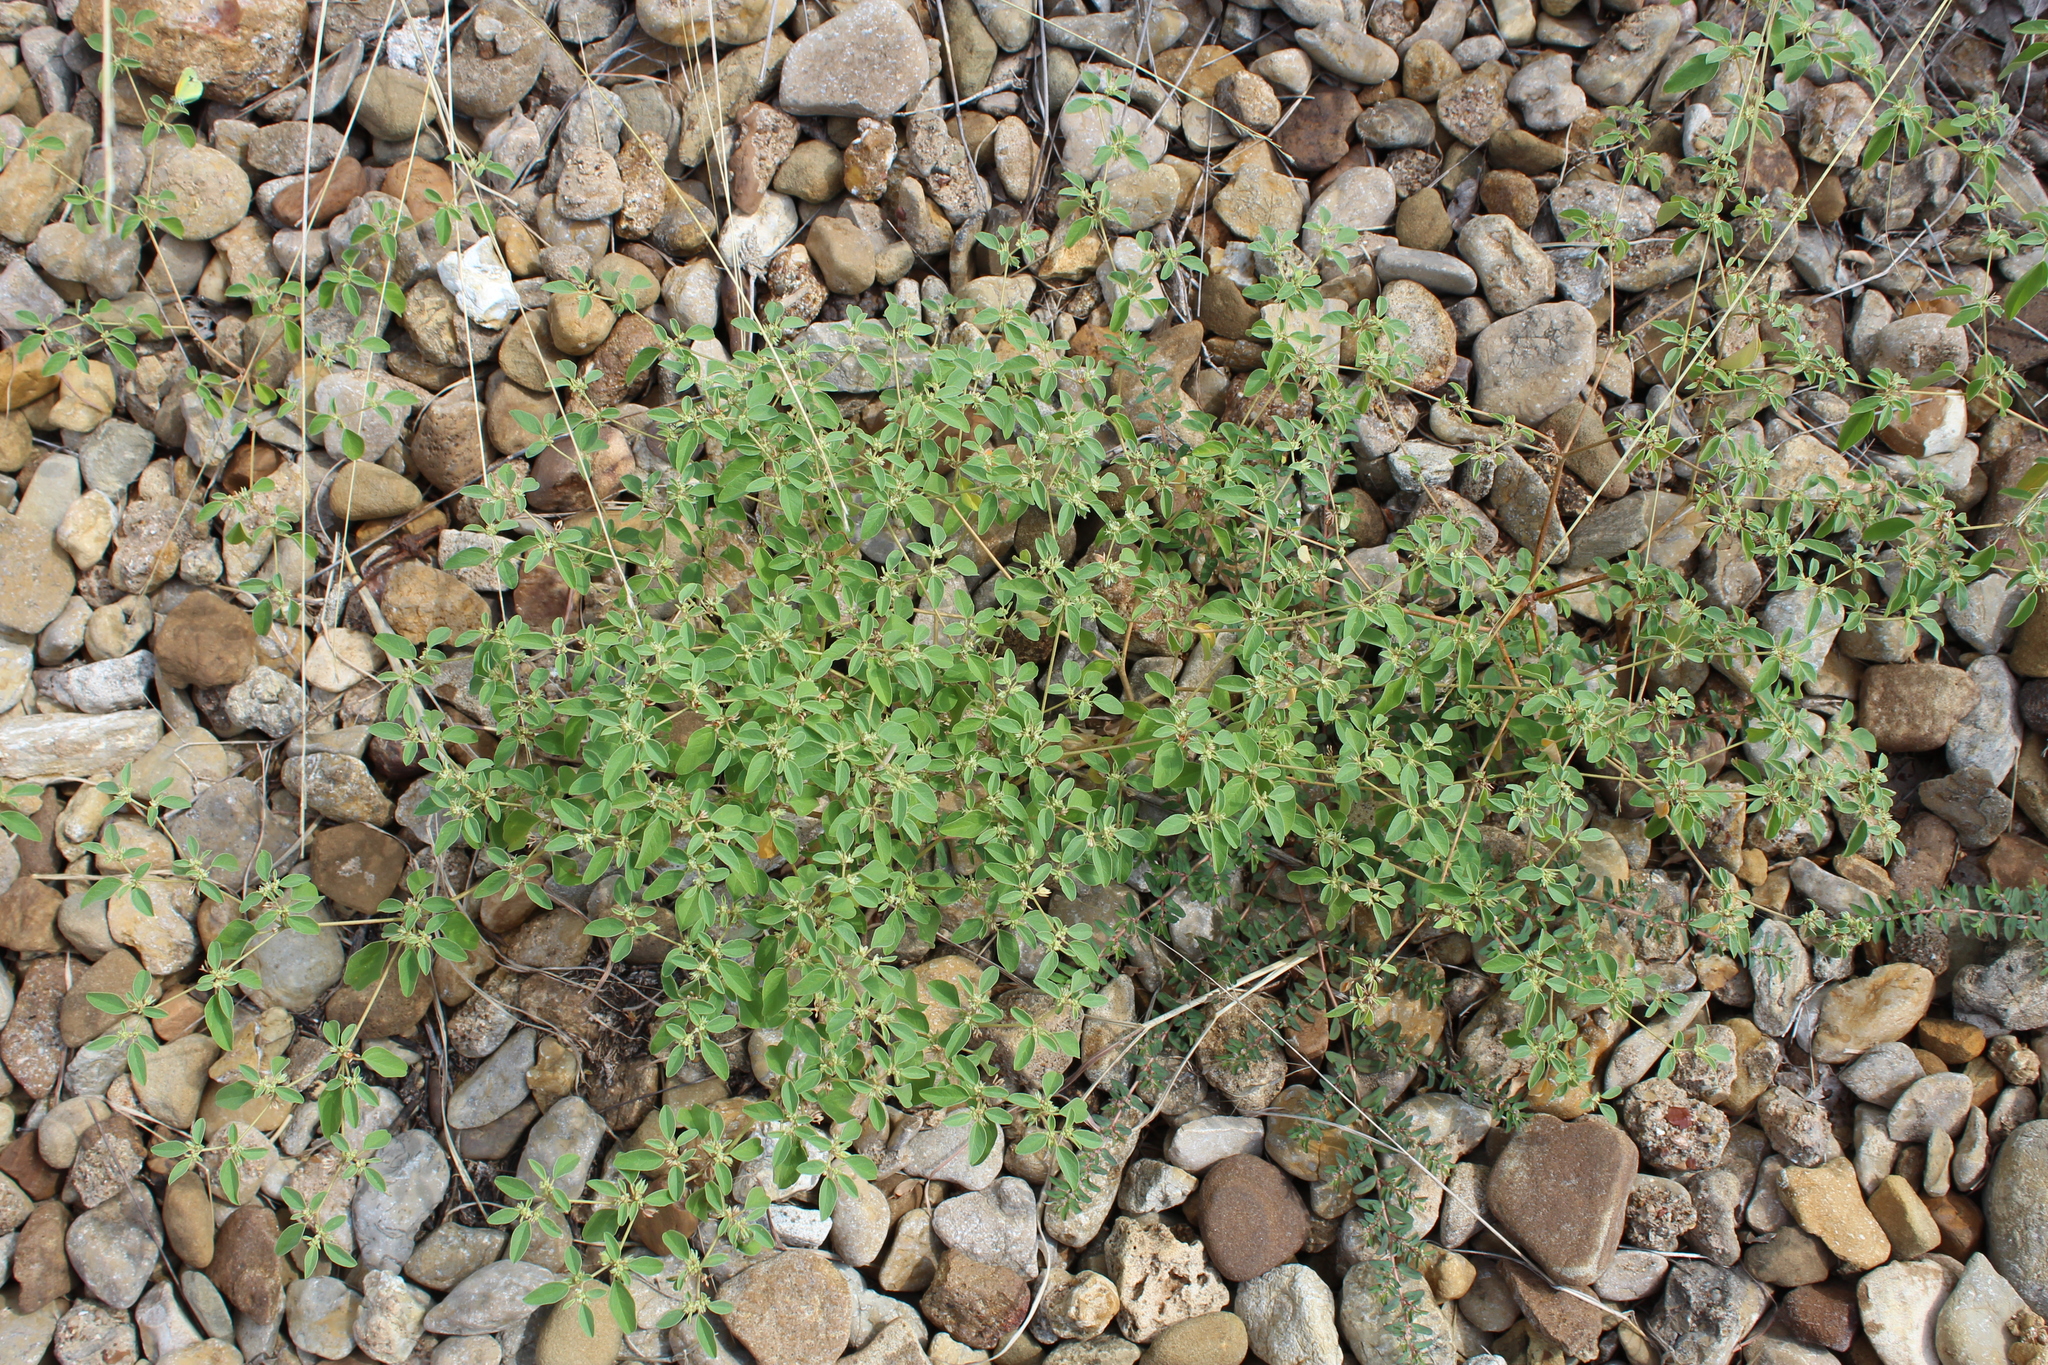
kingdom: Plantae
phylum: Tracheophyta
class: Magnoliopsida
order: Malpighiales
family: Euphorbiaceae
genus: Croton
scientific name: Croton monanthogynus
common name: One-seed croton
